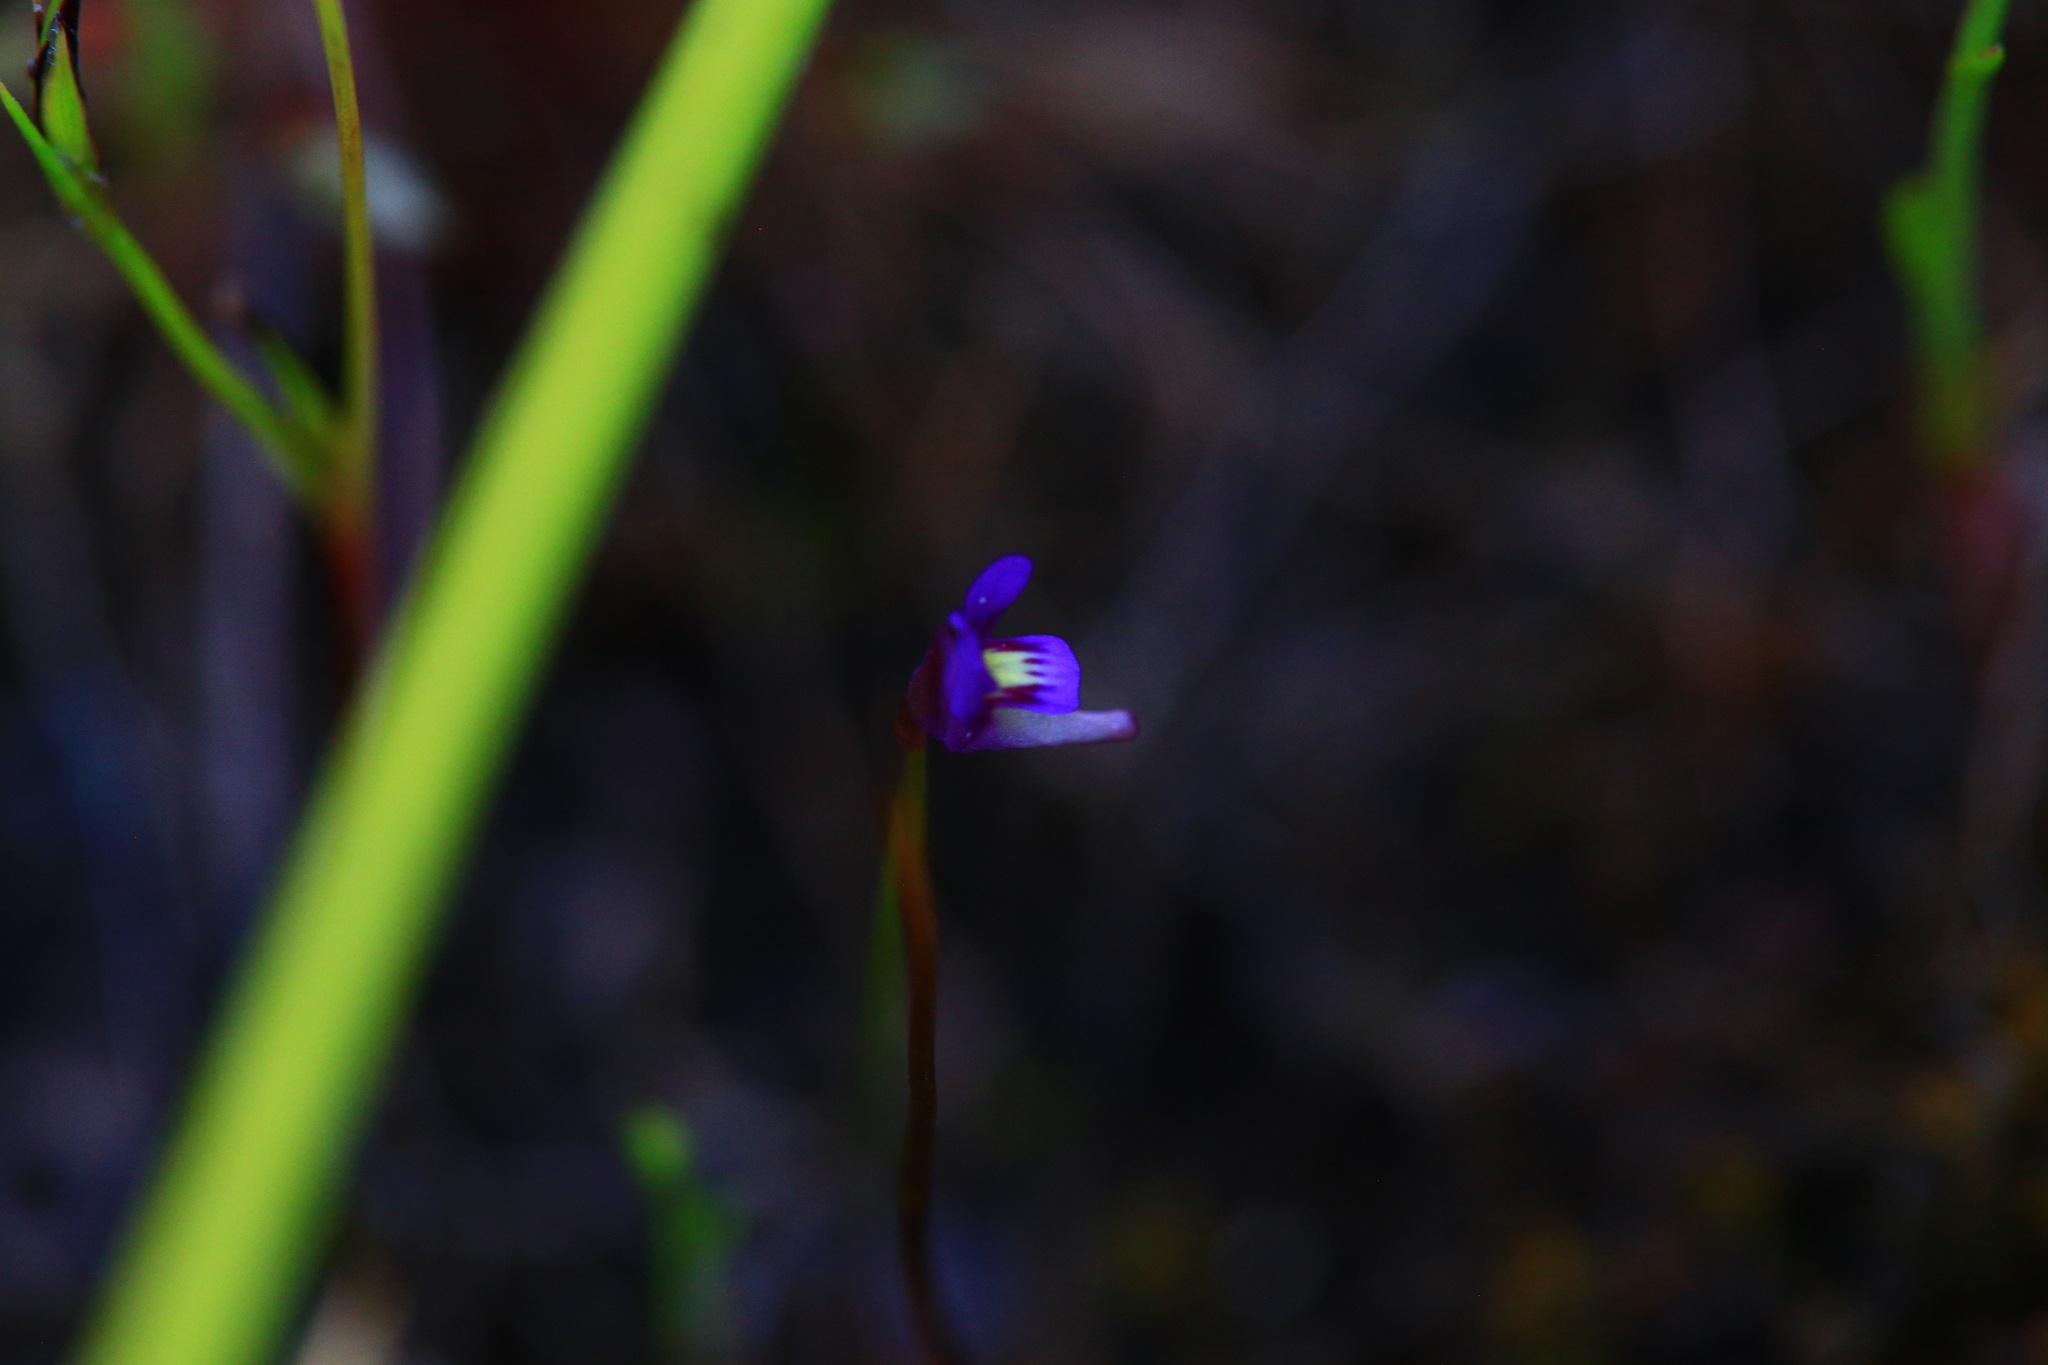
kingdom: Plantae
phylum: Tracheophyta
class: Magnoliopsida
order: Lamiales
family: Lentibulariaceae
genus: Utricularia
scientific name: Utricularia violacea
